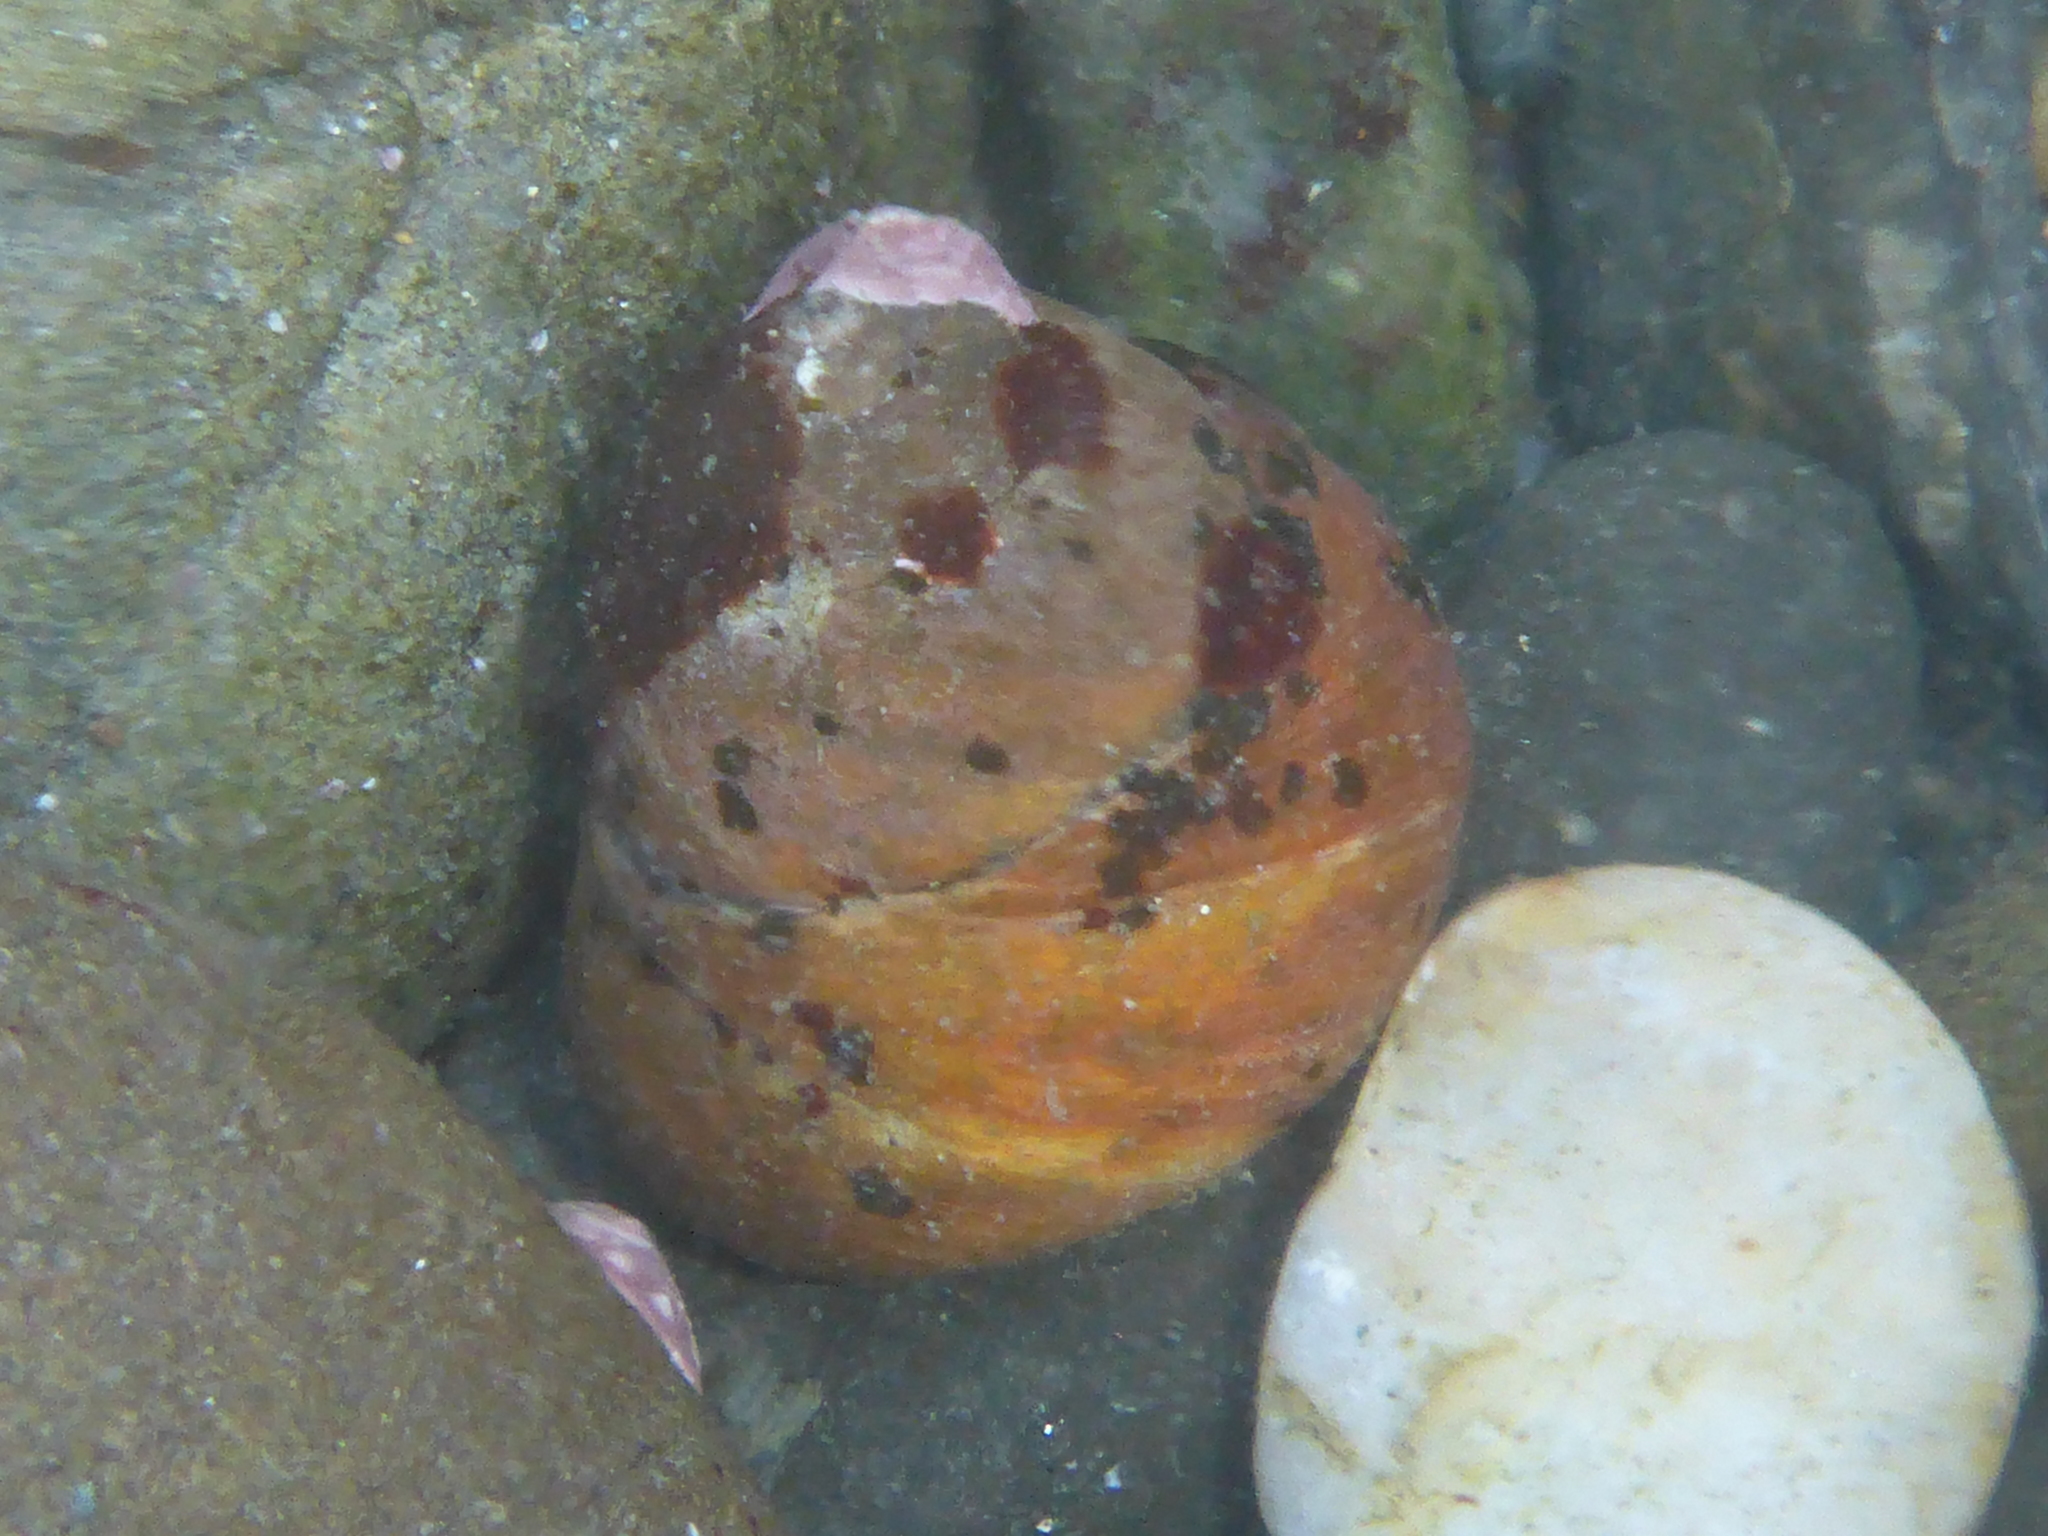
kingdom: Animalia
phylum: Mollusca
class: Gastropoda
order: Trochida
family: Tegulidae
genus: Tegula
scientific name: Tegula brunnea
